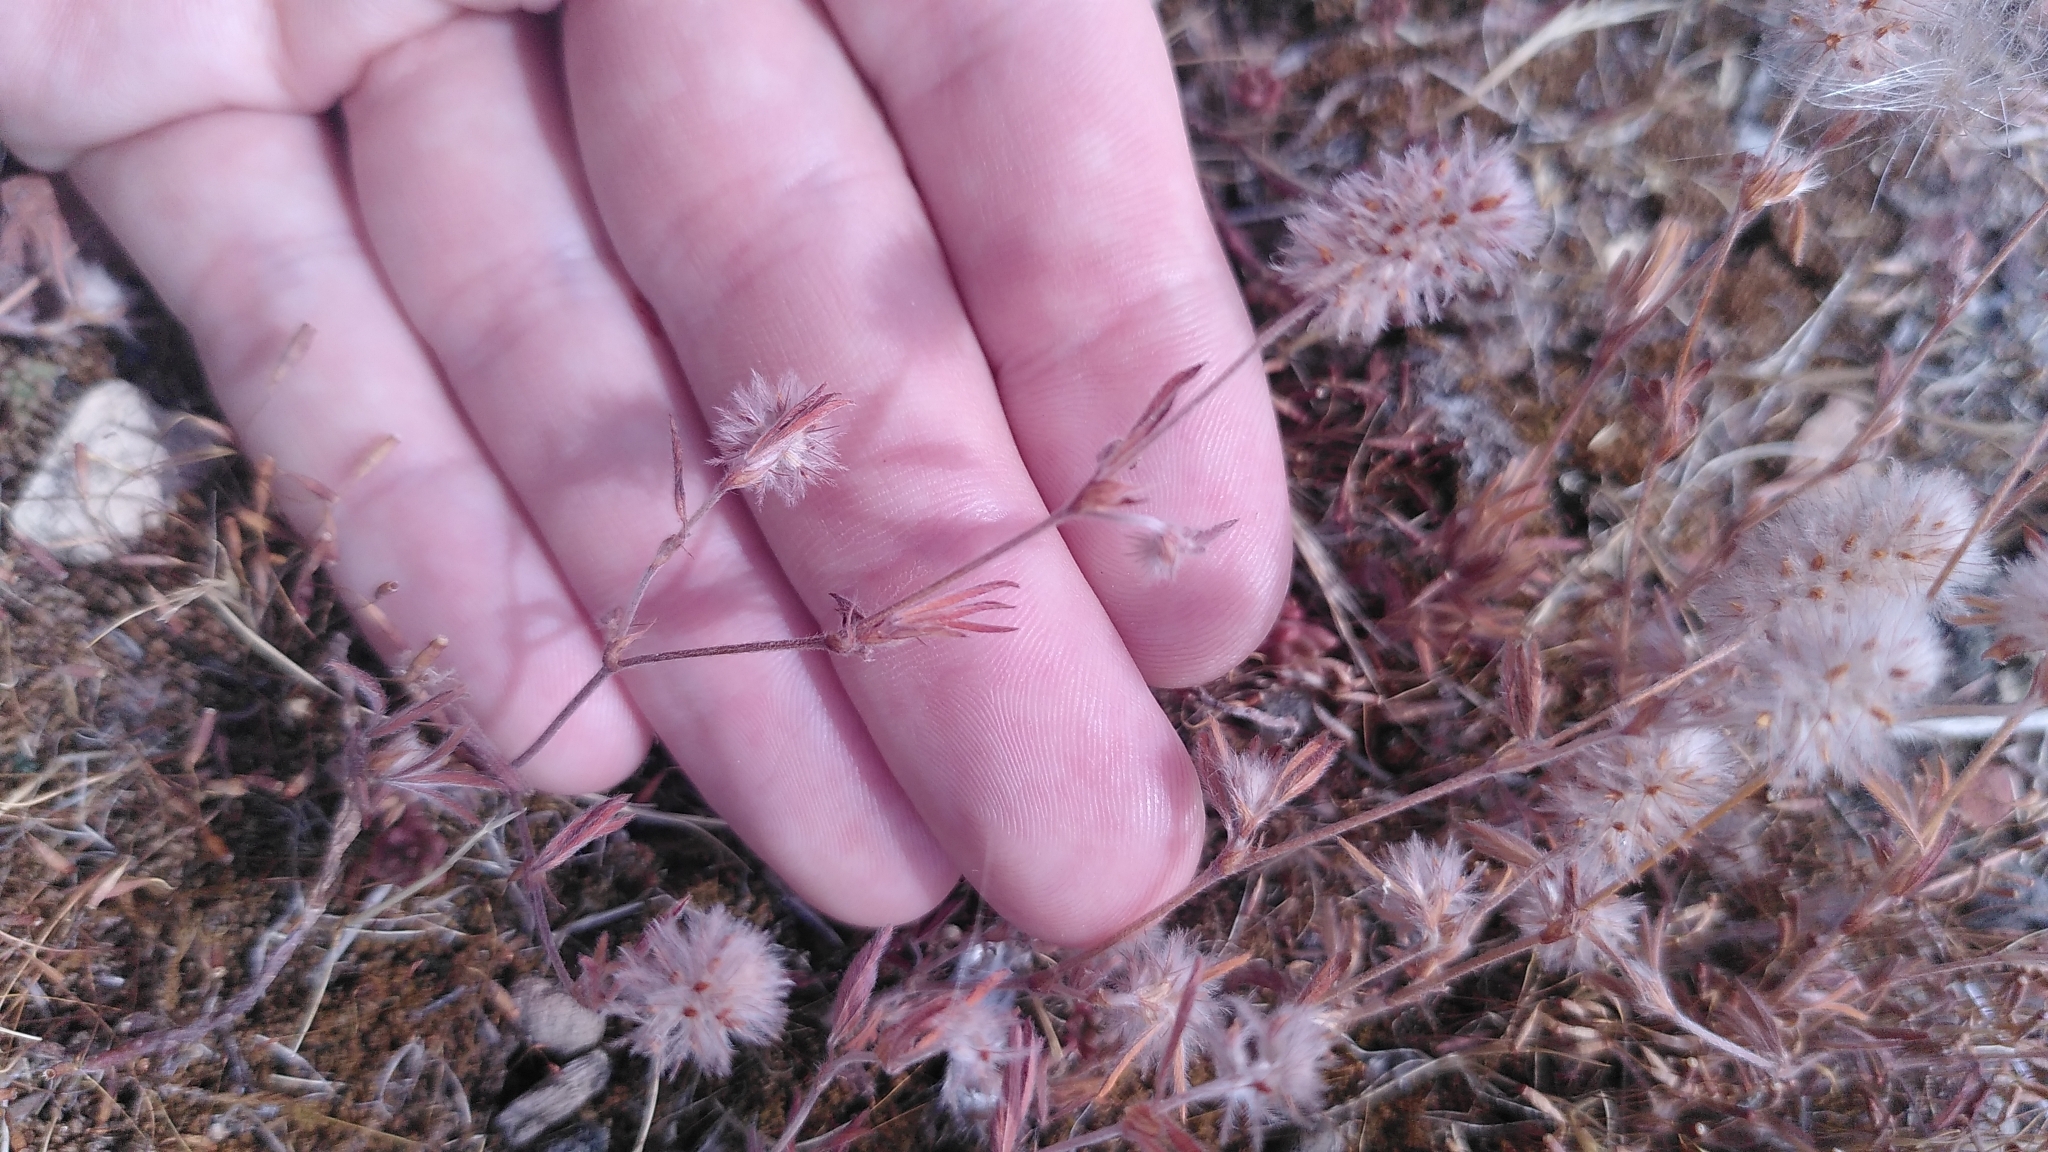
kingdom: Plantae
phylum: Tracheophyta
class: Magnoliopsida
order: Fabales
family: Fabaceae
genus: Trifolium
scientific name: Trifolium arvense
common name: Hare's-foot clover
